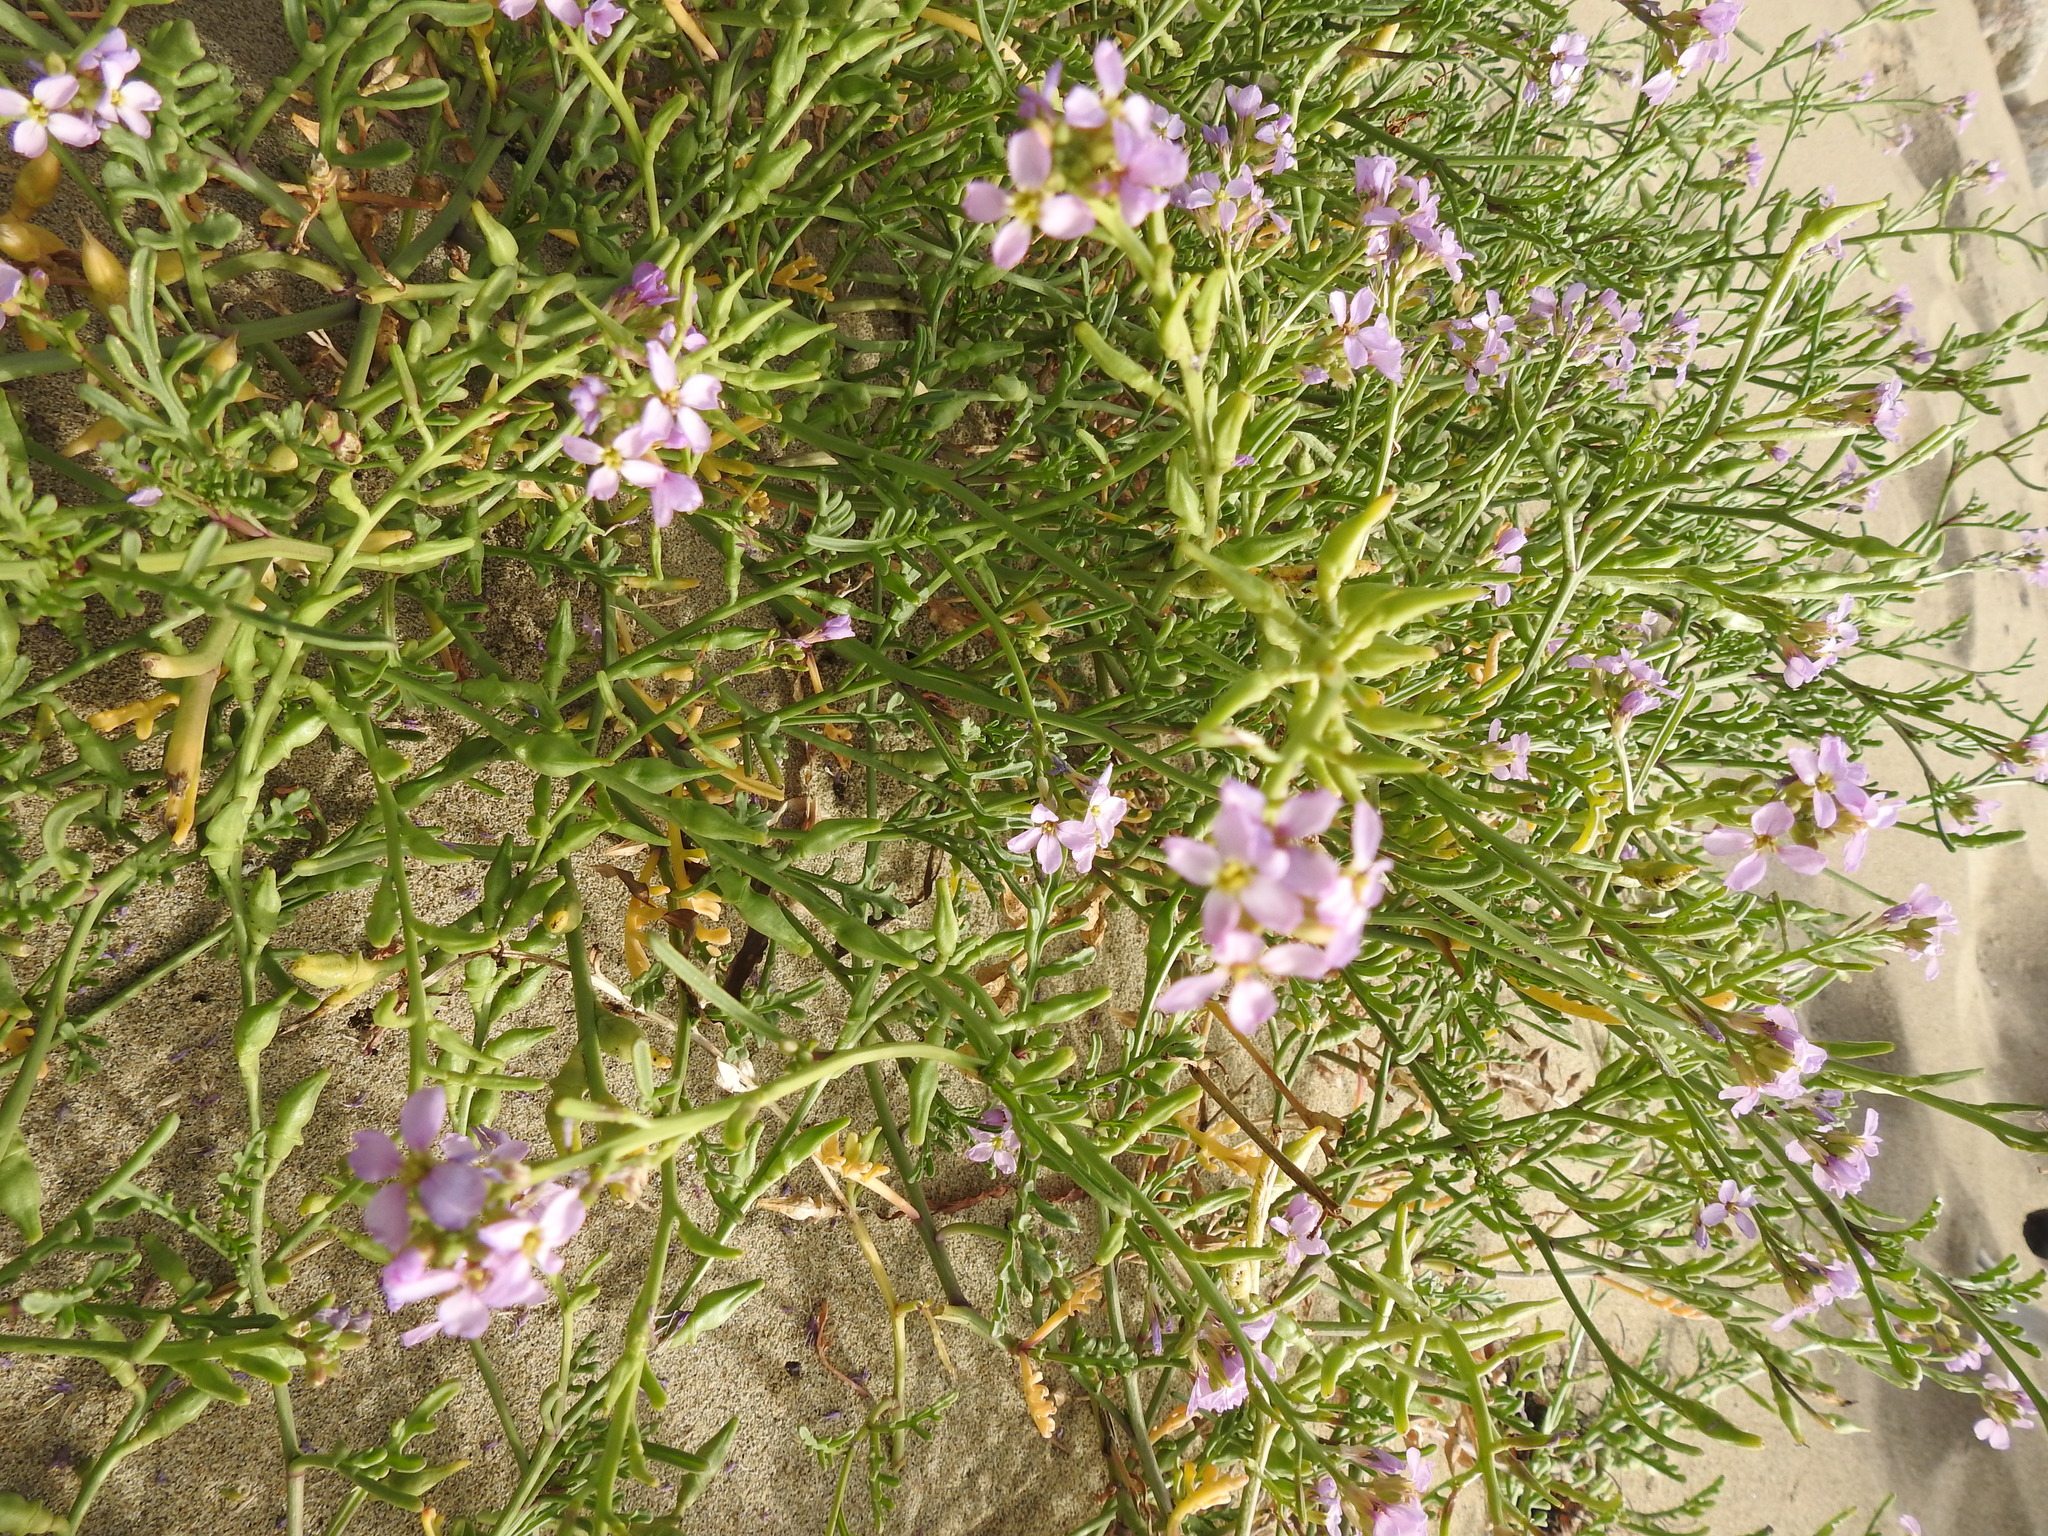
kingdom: Plantae
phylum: Tracheophyta
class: Magnoliopsida
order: Brassicales
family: Brassicaceae
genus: Cakile
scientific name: Cakile maritima
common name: Sea rocket
